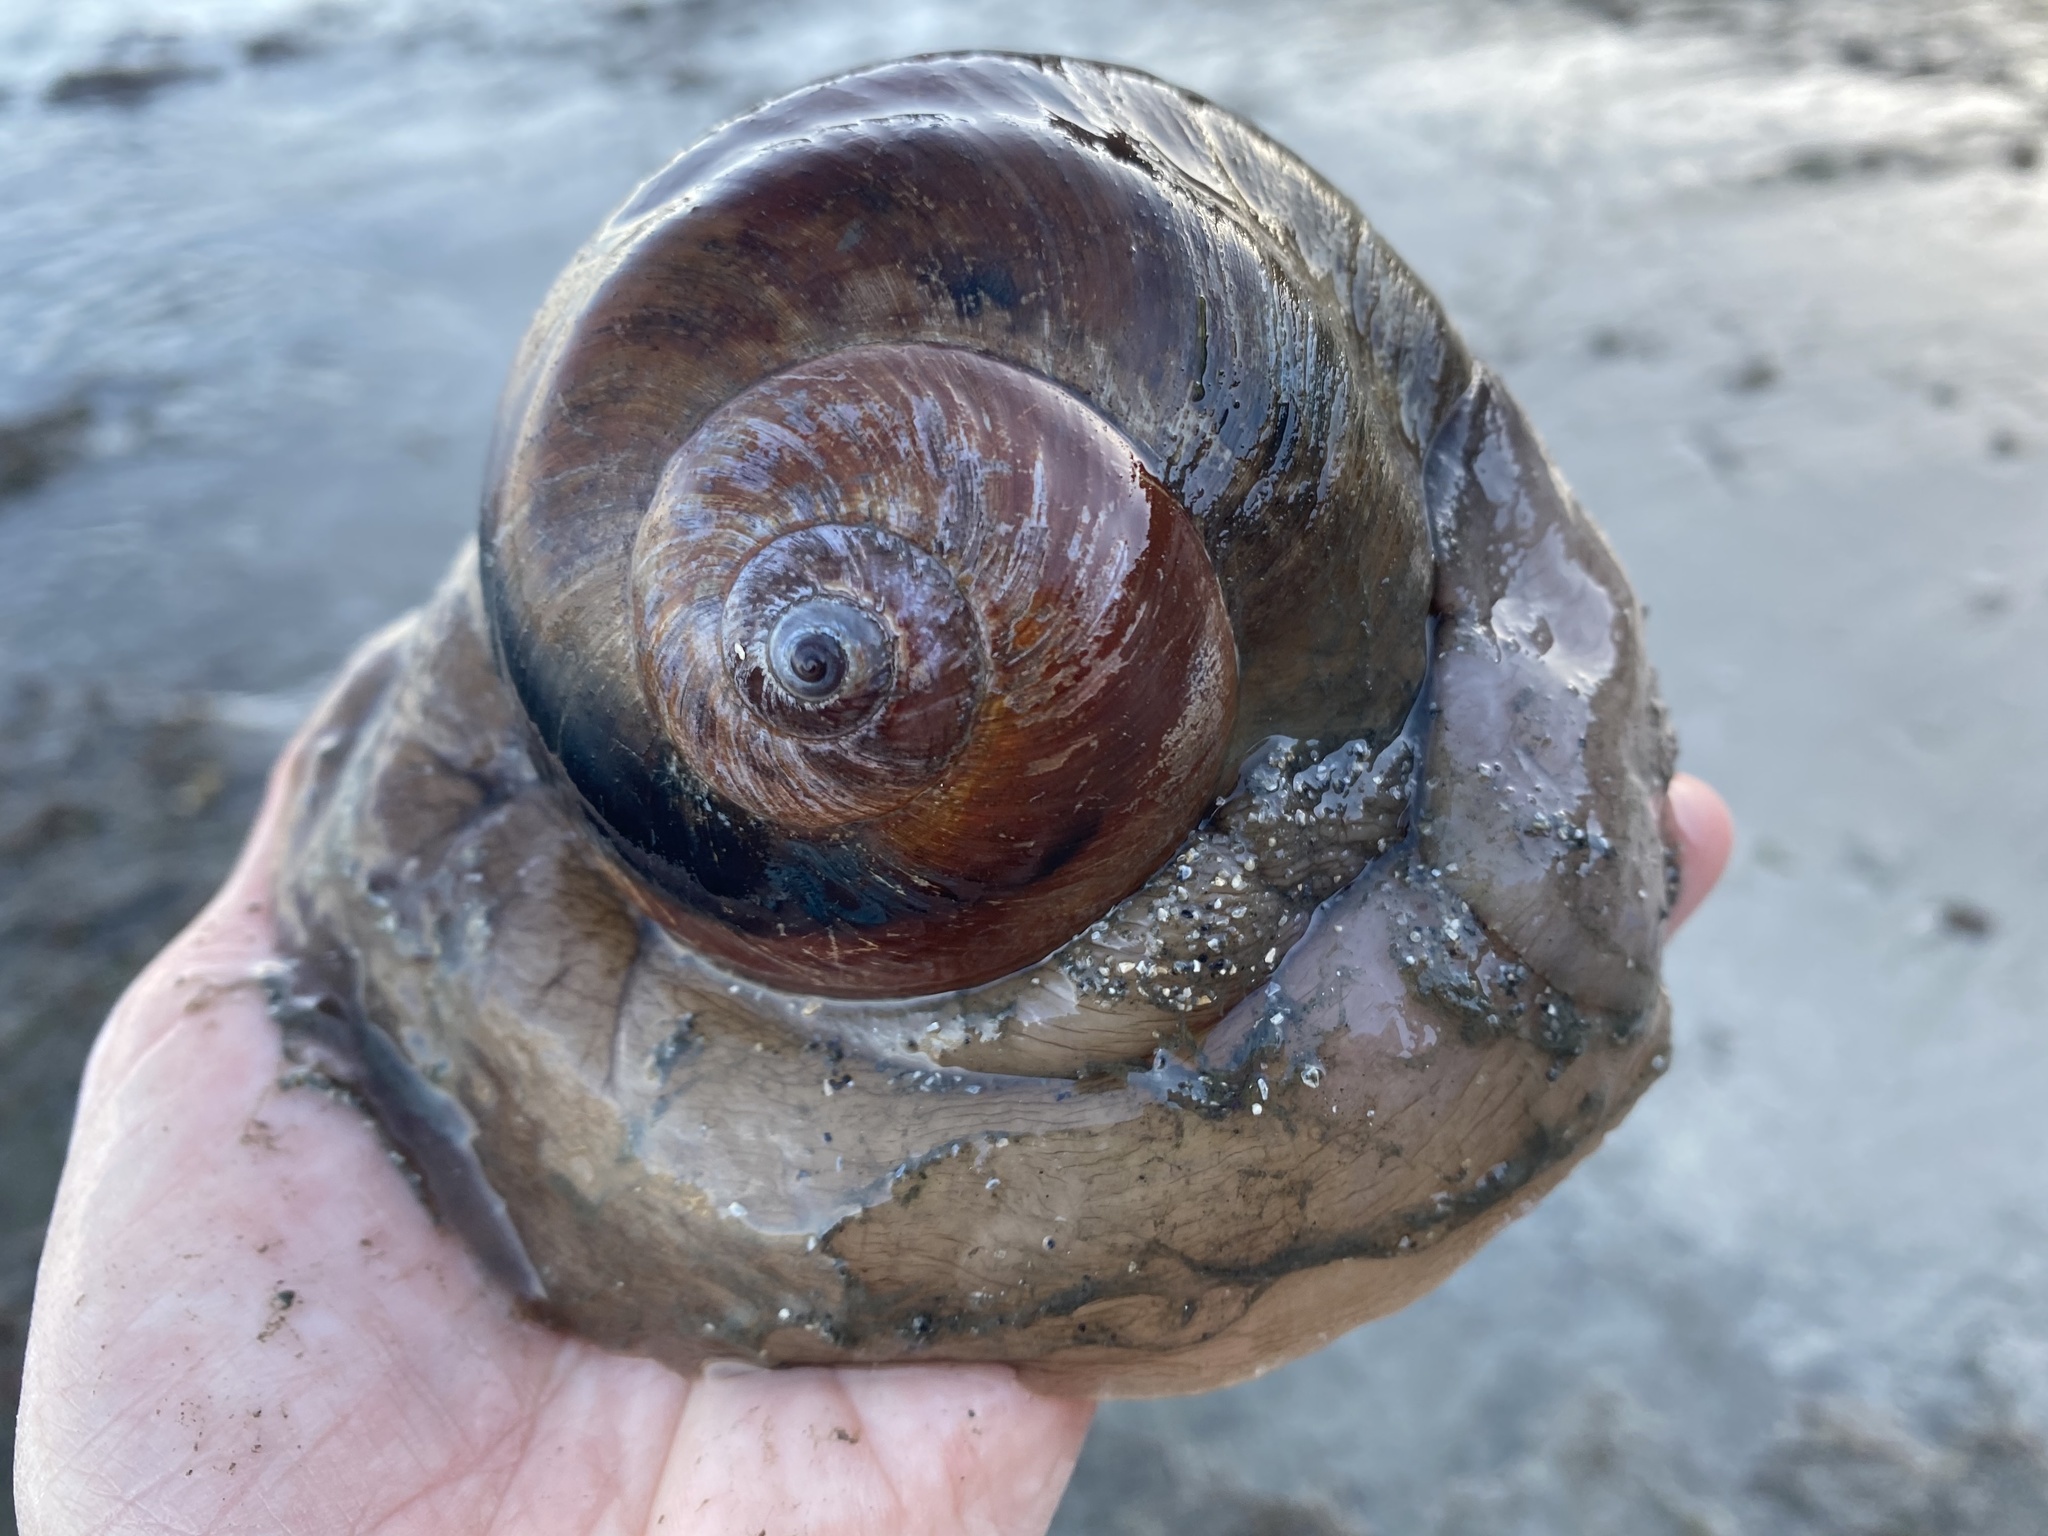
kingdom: Animalia
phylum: Mollusca
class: Gastropoda
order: Littorinimorpha
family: Naticidae
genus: Neverita
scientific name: Neverita lewisii
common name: Lewis' moonsnail
